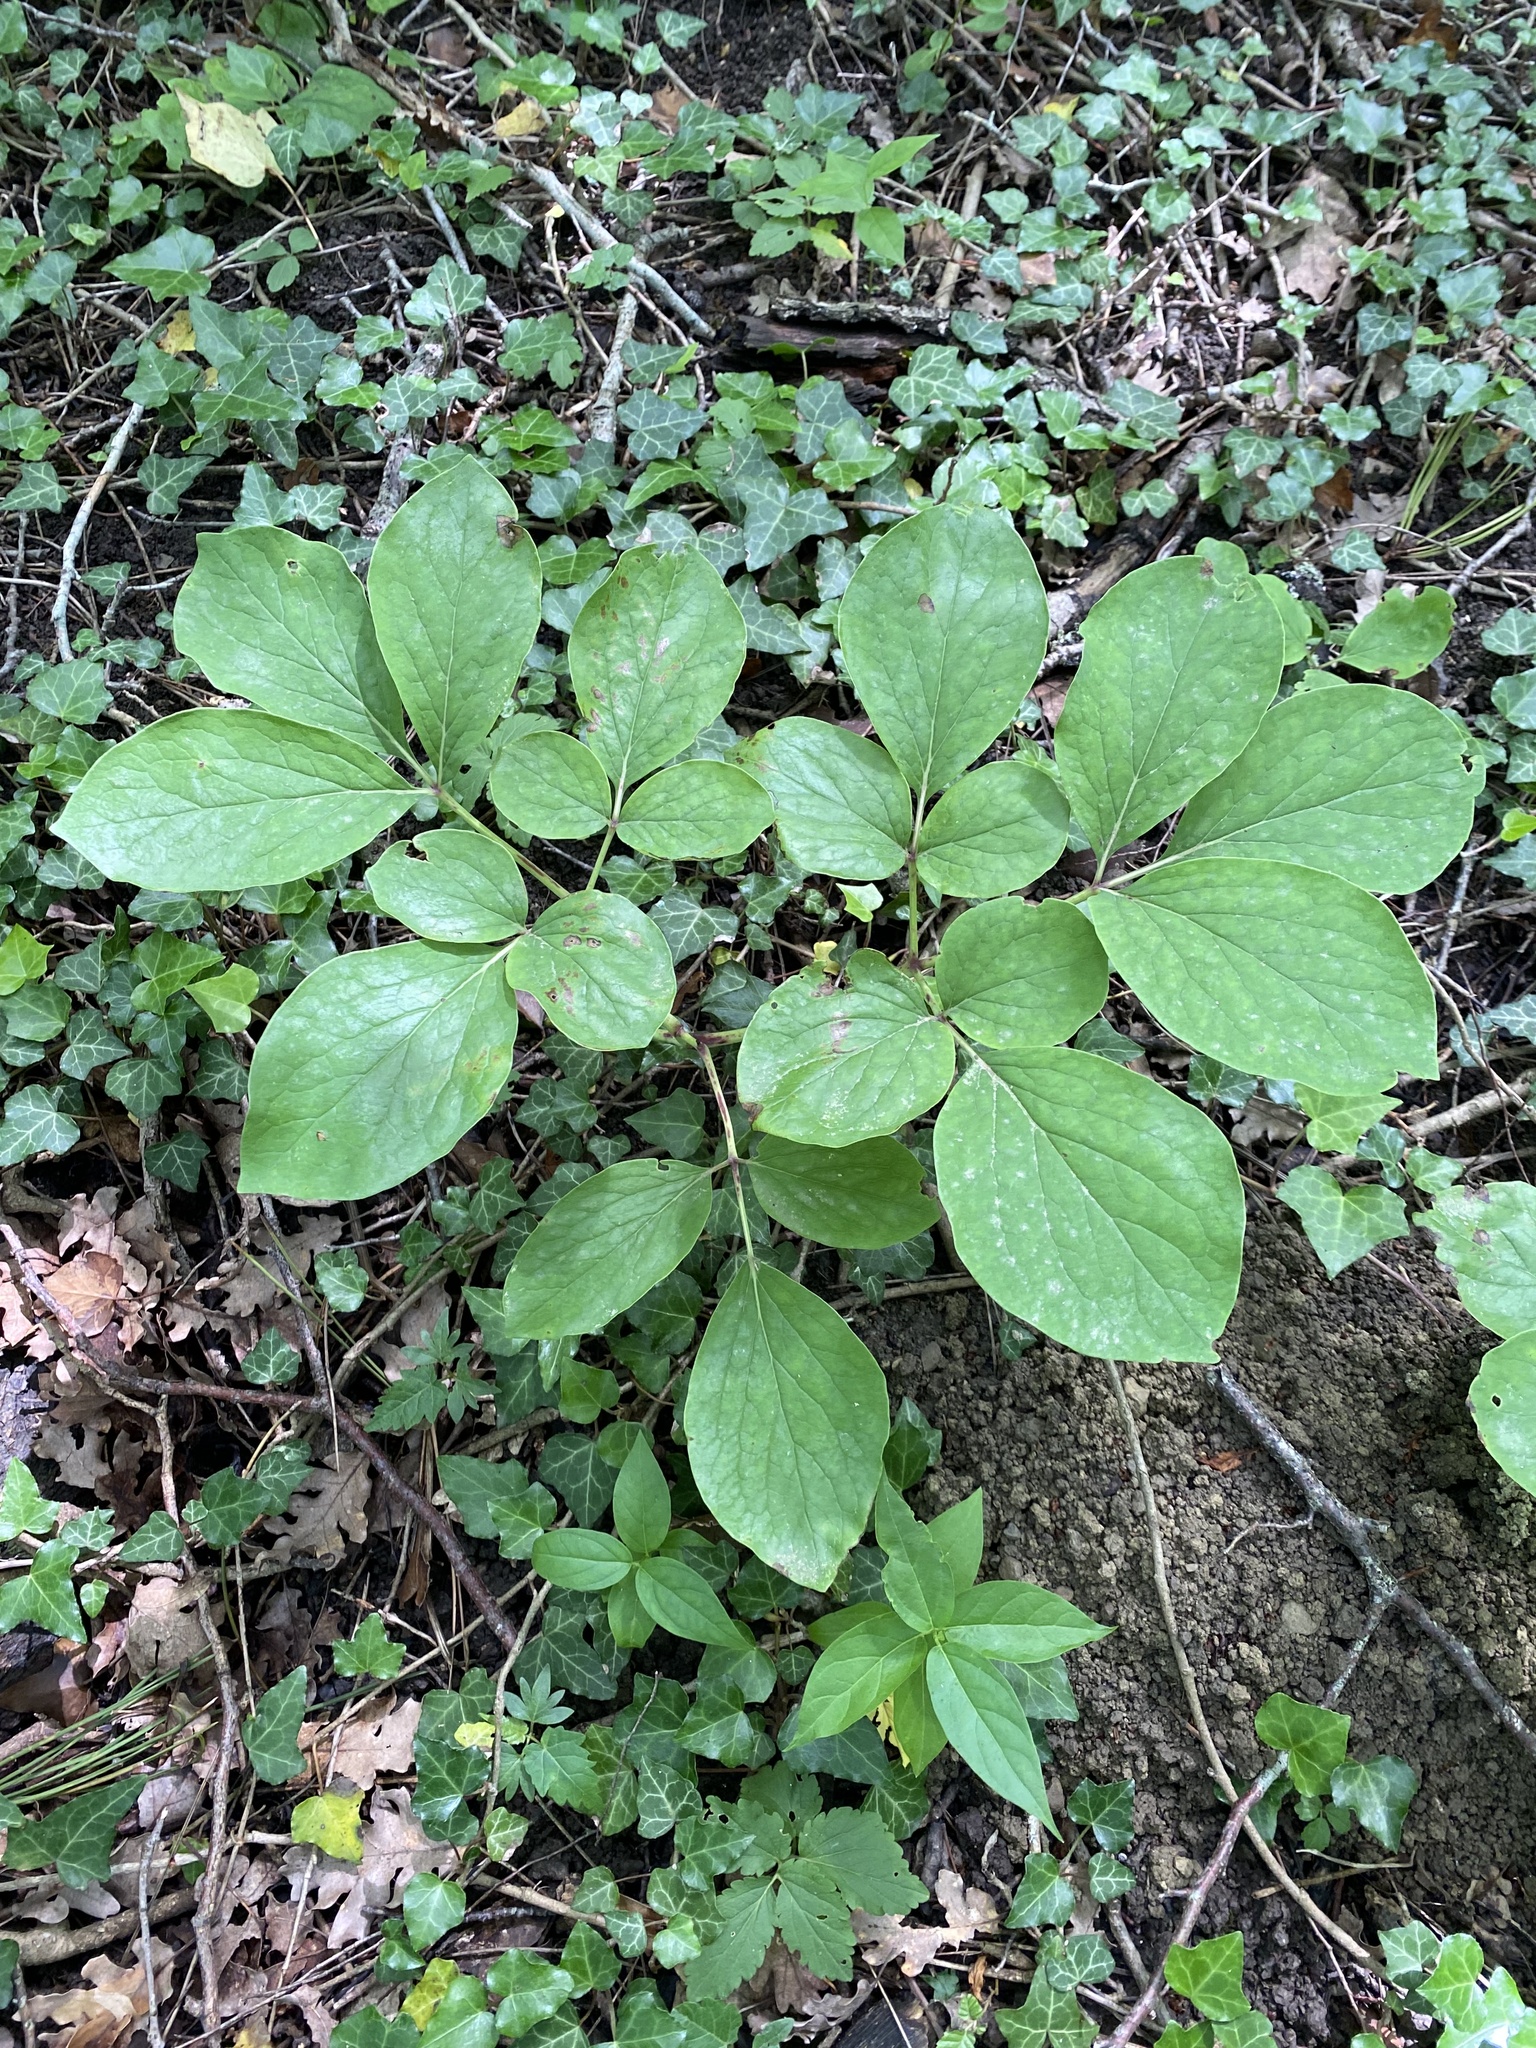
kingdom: Plantae
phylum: Tracheophyta
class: Magnoliopsida
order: Saxifragales
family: Paeoniaceae
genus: Paeonia
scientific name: Paeonia caucasica
